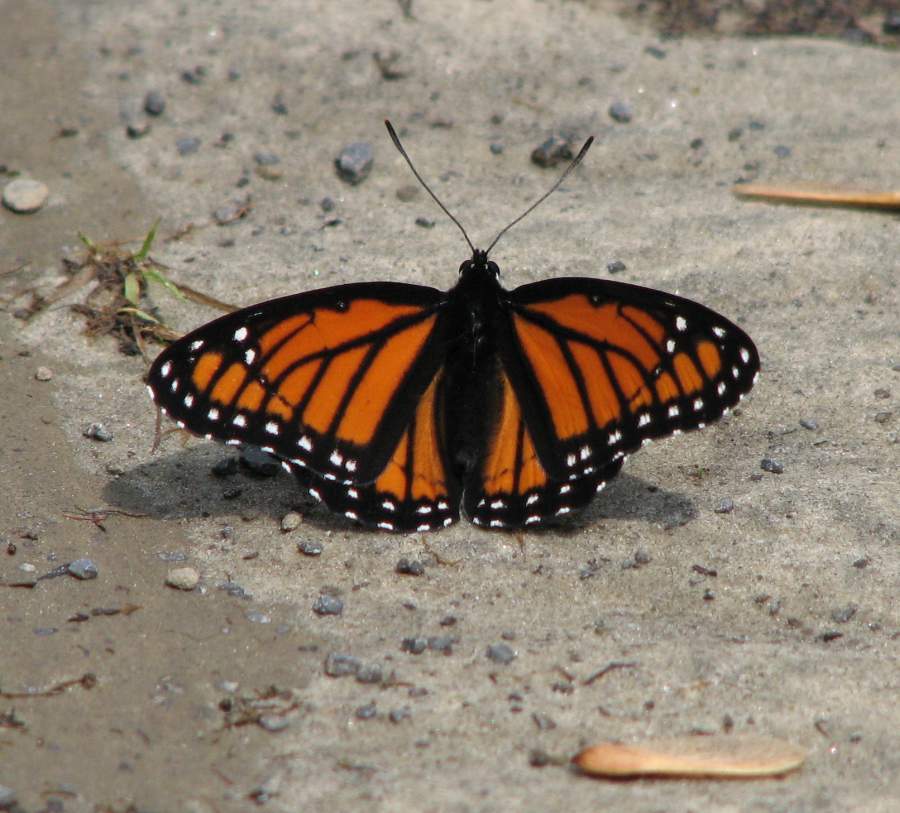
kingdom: Animalia
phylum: Arthropoda
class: Insecta
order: Lepidoptera
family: Nymphalidae
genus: Limenitis
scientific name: Limenitis archippus
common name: Viceroy
